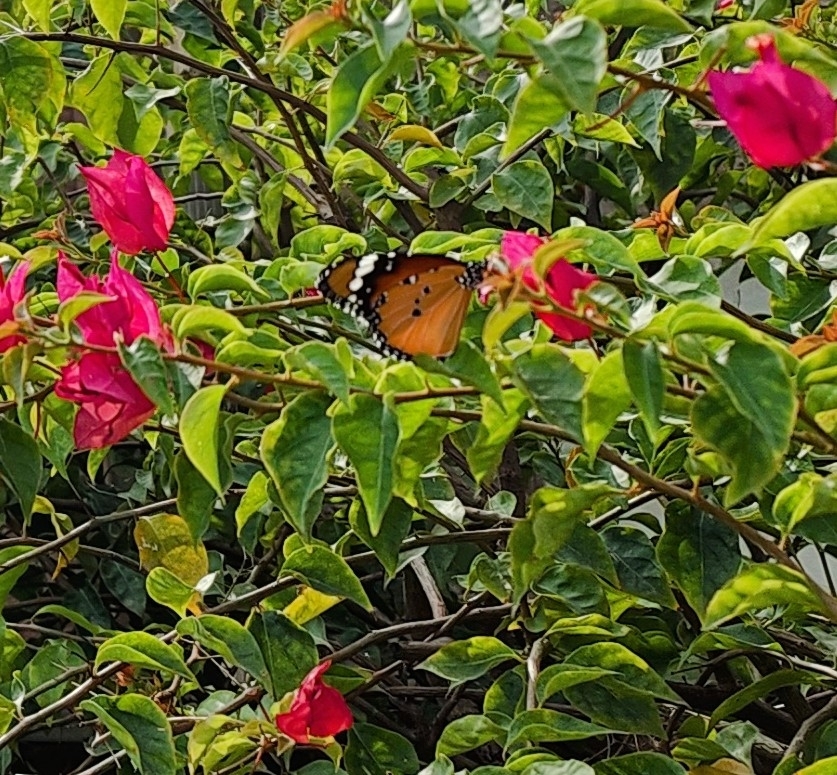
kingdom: Animalia
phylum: Arthropoda
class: Insecta
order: Lepidoptera
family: Nymphalidae
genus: Danaus
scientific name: Danaus chrysippus
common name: Plain tiger
